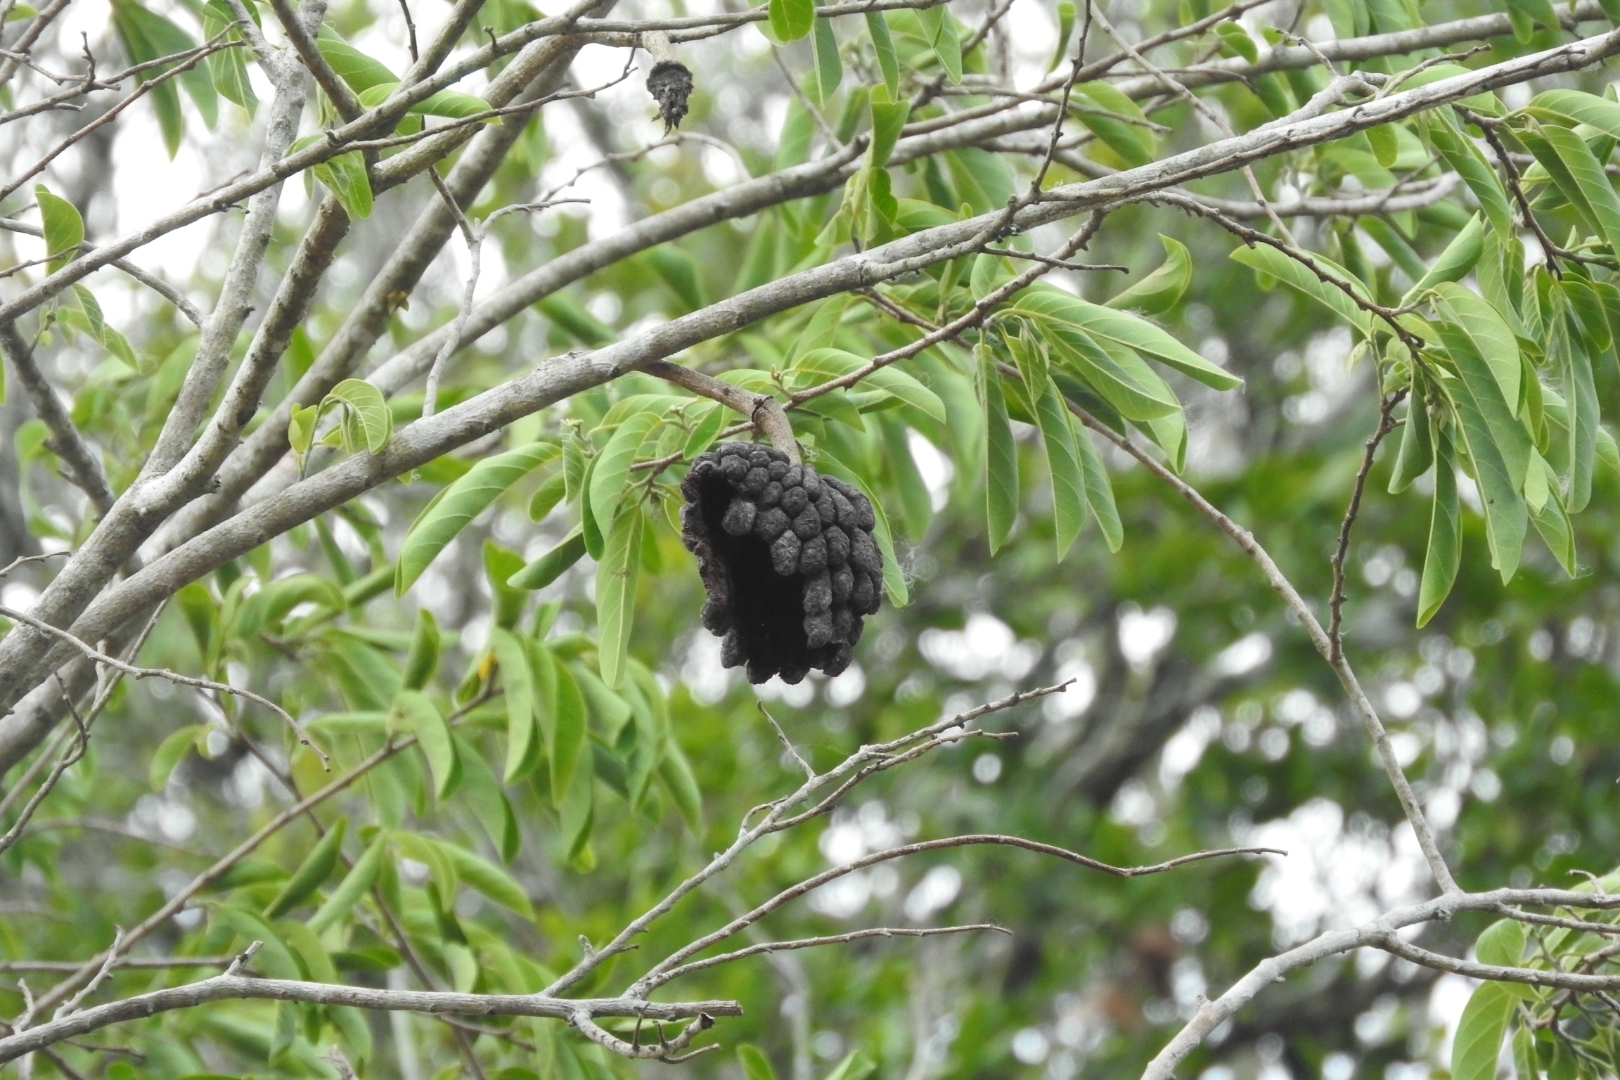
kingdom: Plantae
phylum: Tracheophyta
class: Magnoliopsida
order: Magnoliales
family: Annonaceae
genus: Annona
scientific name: Annona squamosa
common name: Custard-apple
